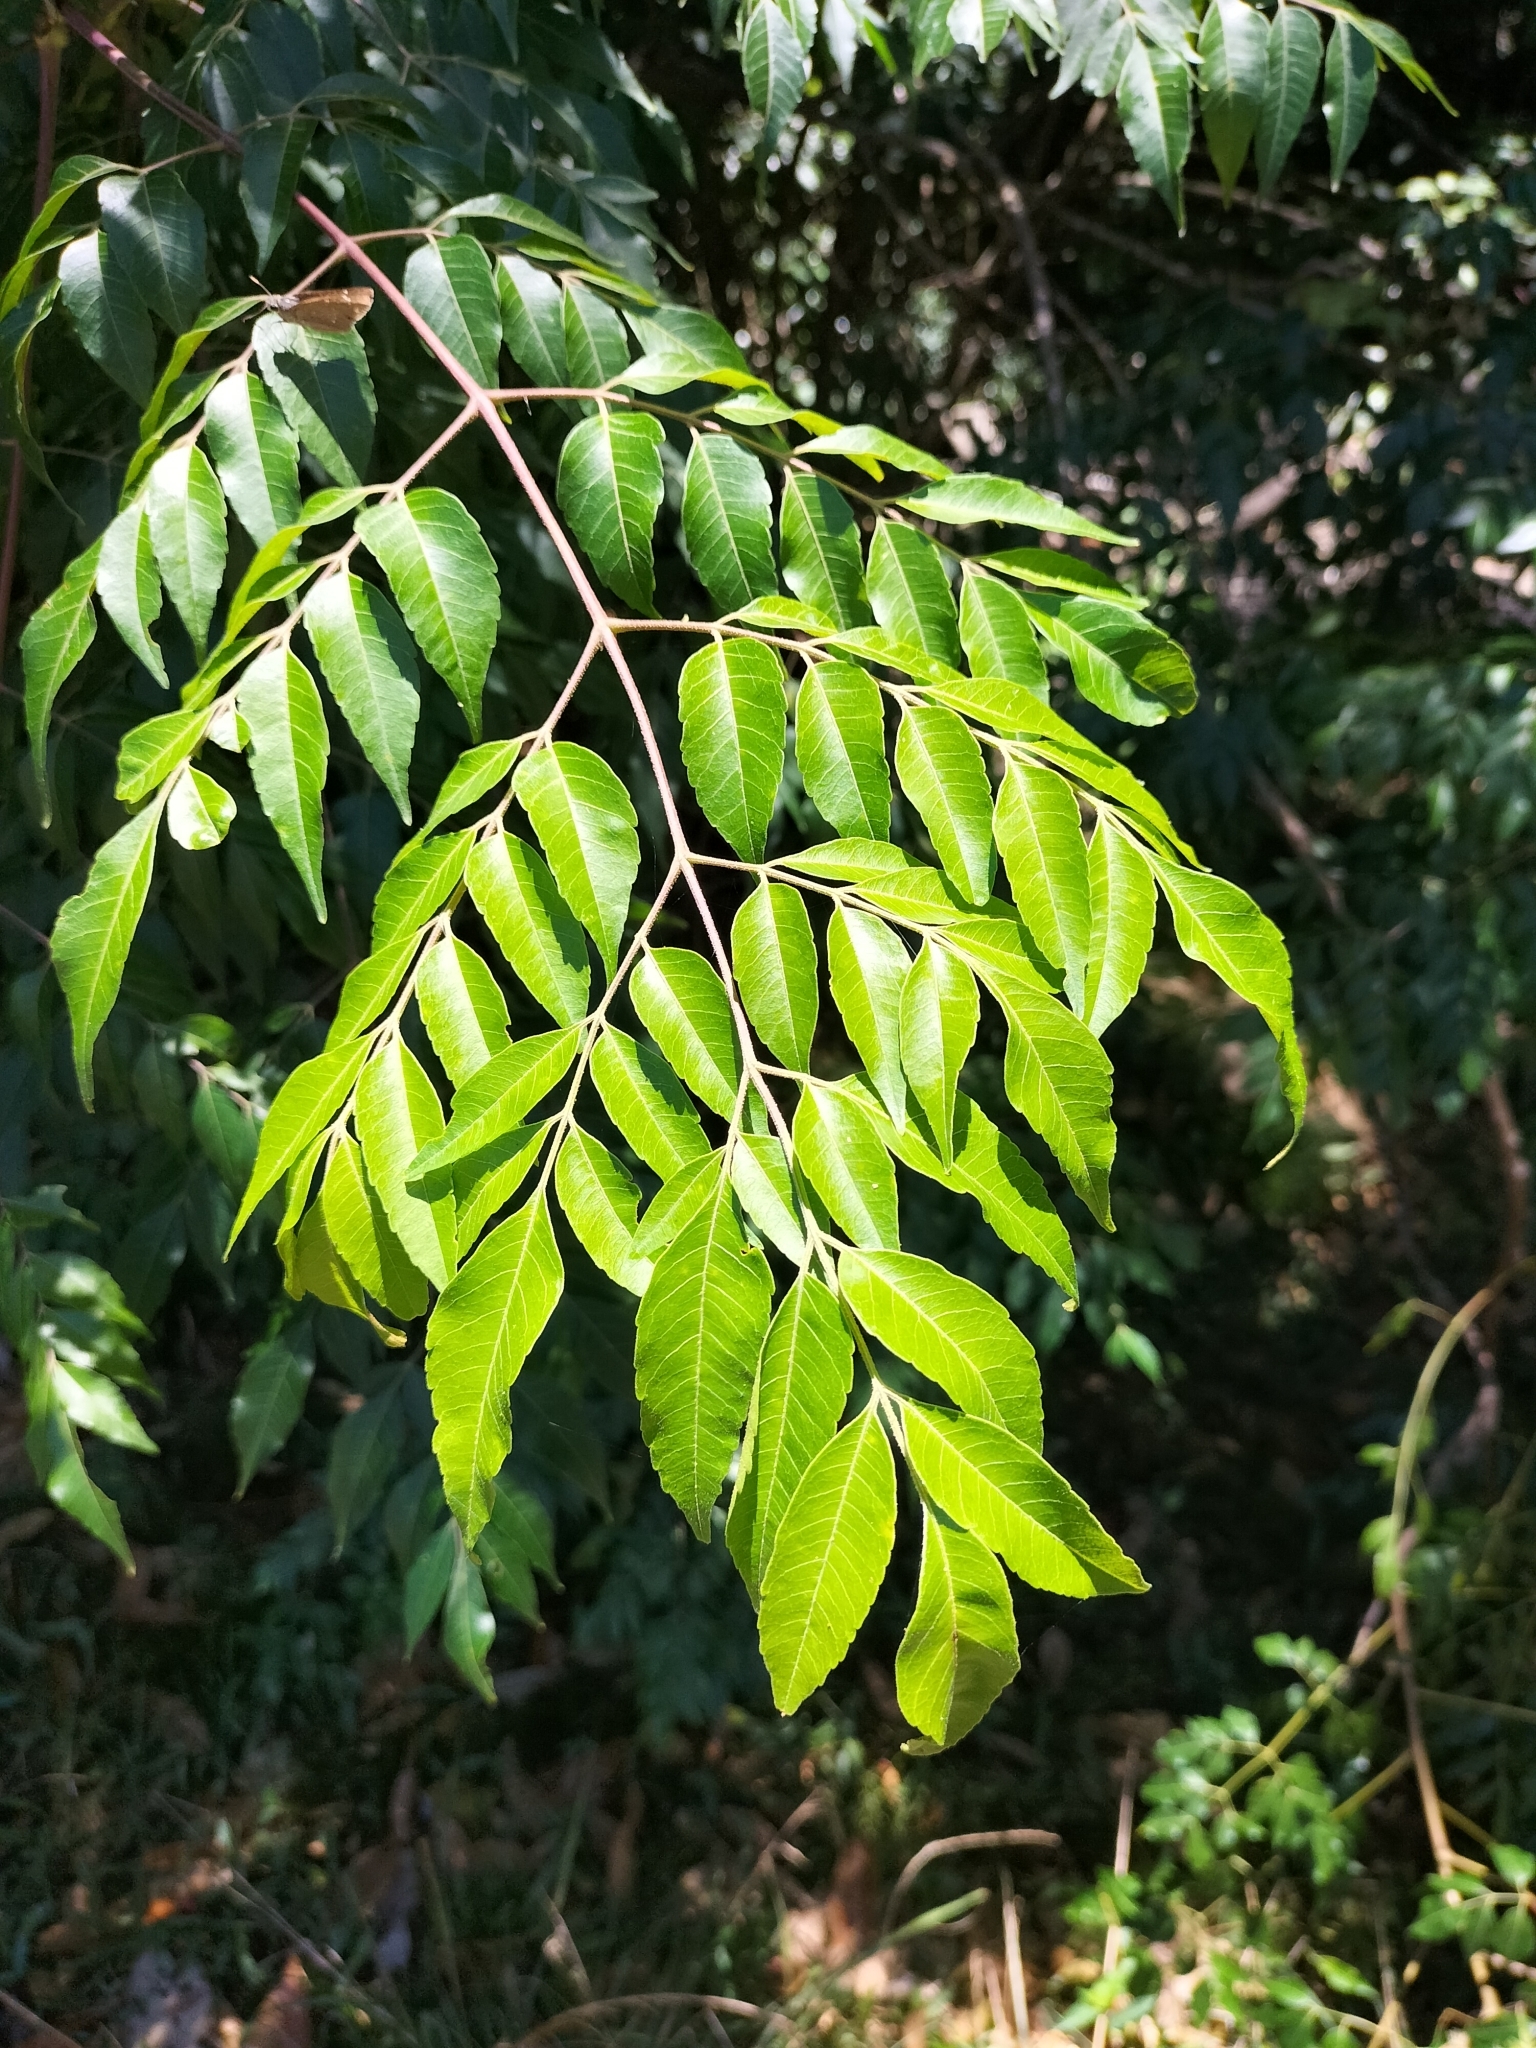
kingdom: Plantae
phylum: Tracheophyta
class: Magnoliopsida
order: Sapindales
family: Meliaceae
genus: Melia
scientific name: Melia azedarach
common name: Chinaberrytree
